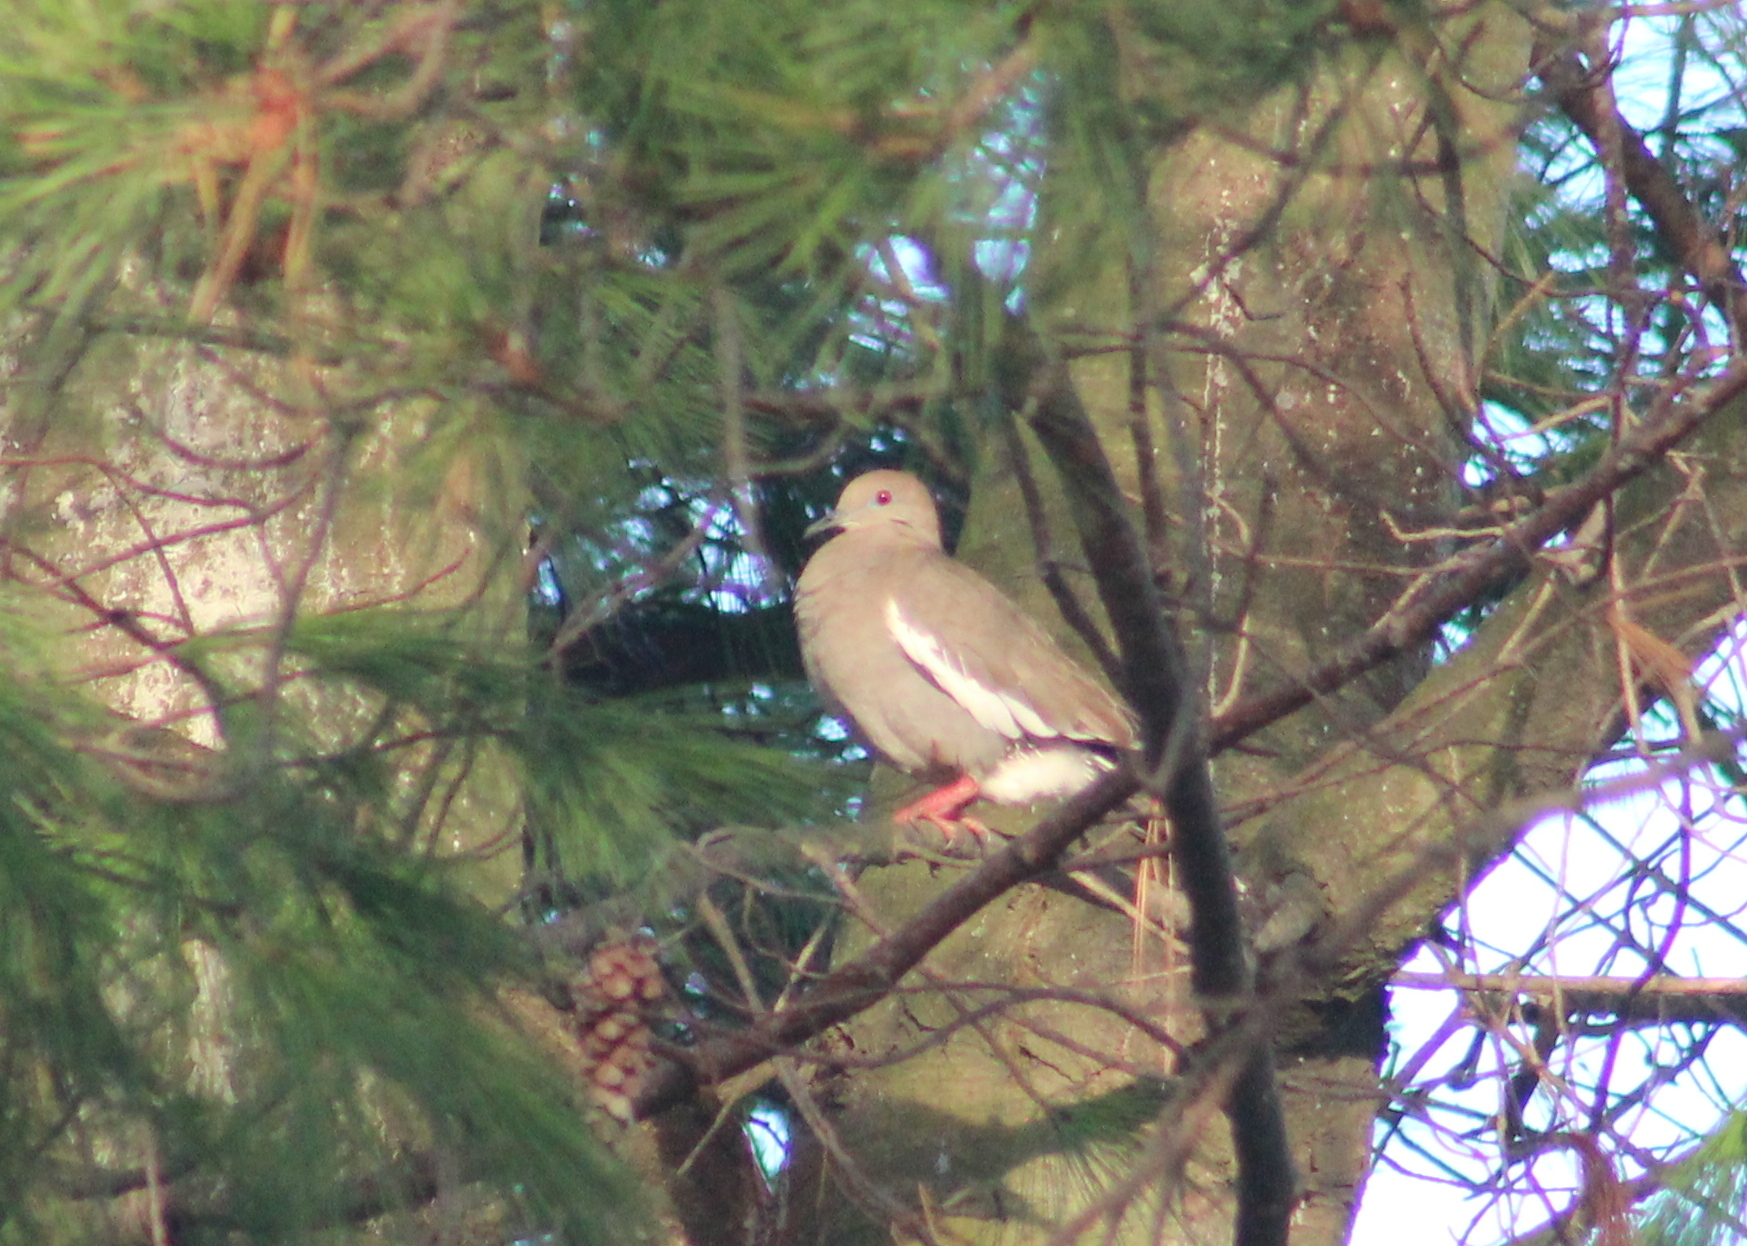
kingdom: Animalia
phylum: Chordata
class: Aves
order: Columbiformes
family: Columbidae
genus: Zenaida
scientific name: Zenaida asiatica
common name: White-winged dove
